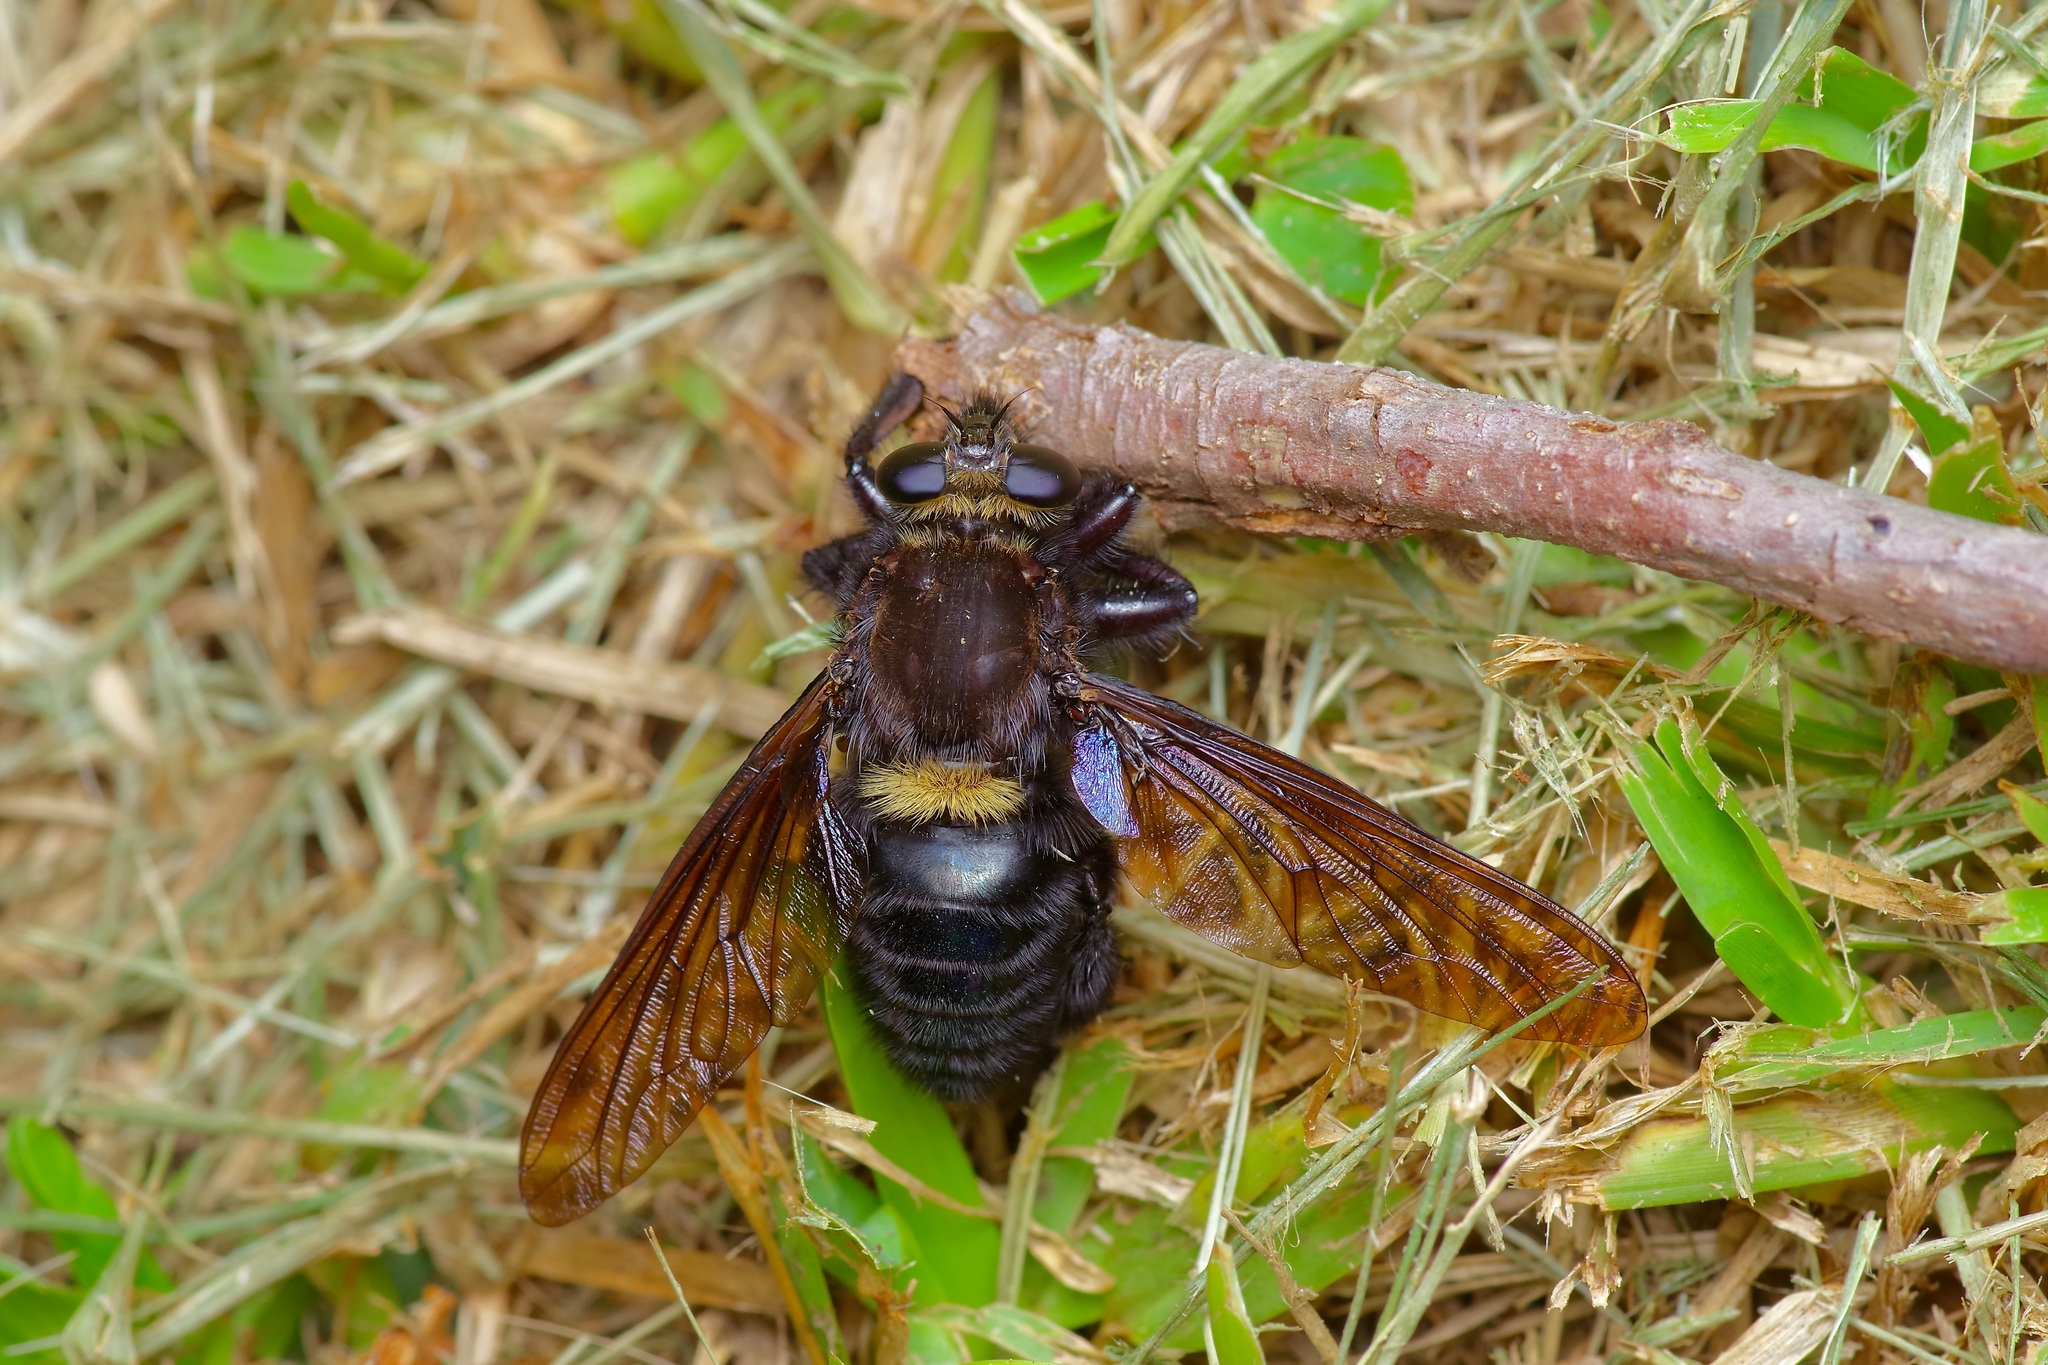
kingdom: Animalia
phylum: Arthropoda
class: Insecta
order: Diptera
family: Asilidae
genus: Mallophora
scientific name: Mallophora leschenaultii
